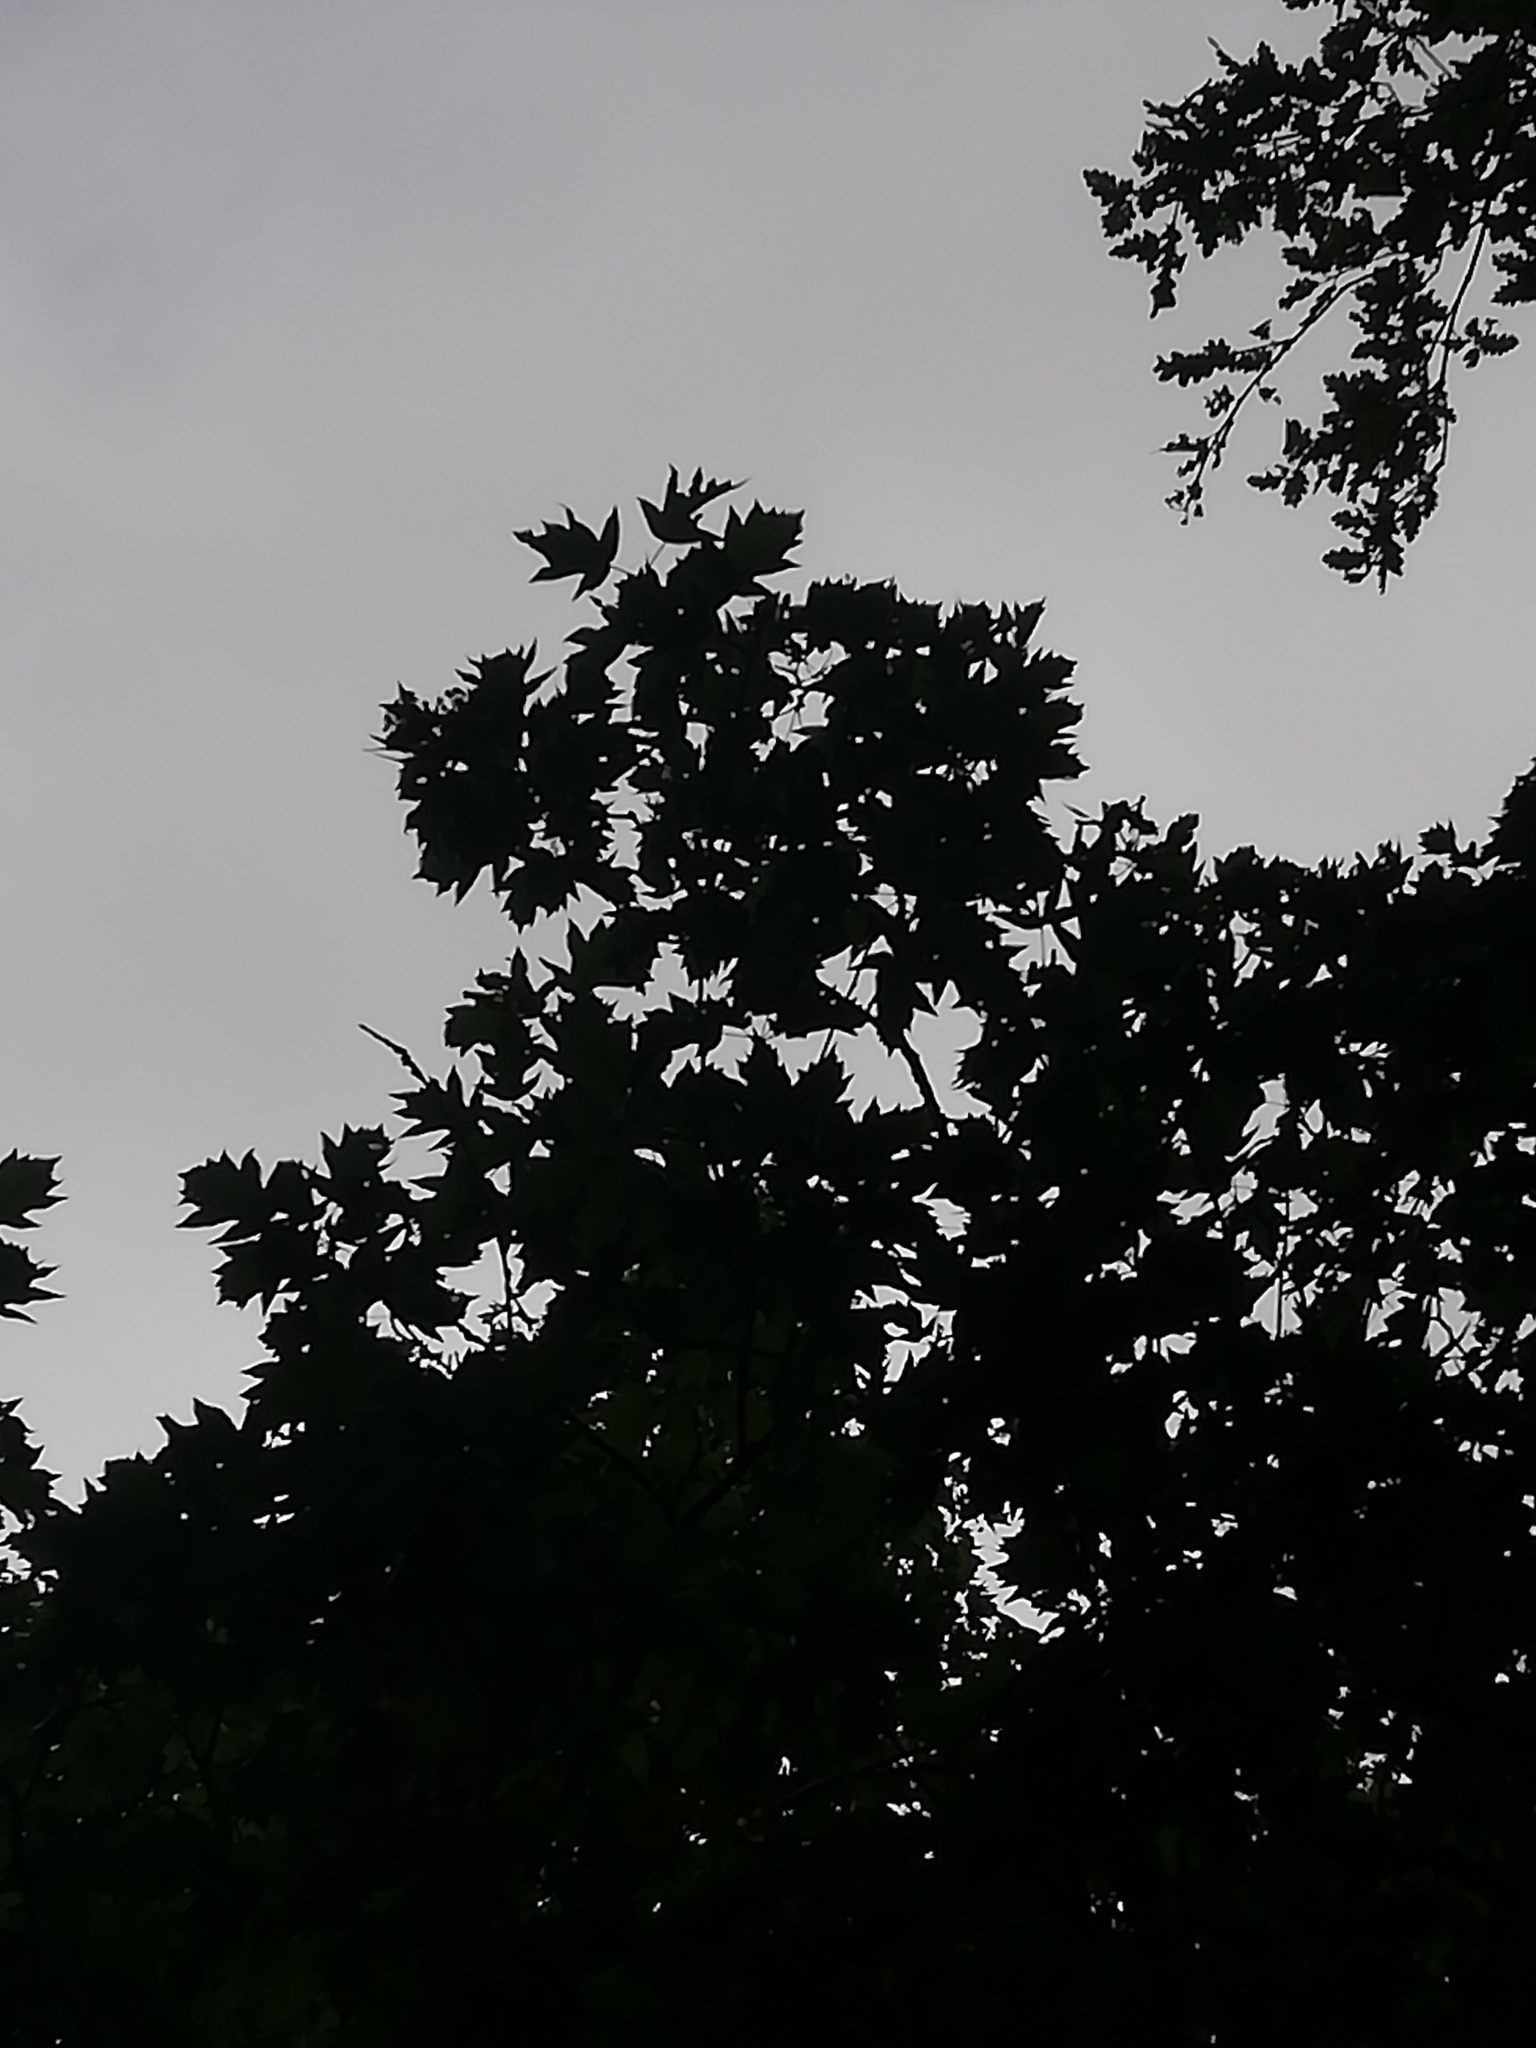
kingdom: Plantae
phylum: Tracheophyta
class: Magnoliopsida
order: Rosales
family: Rosaceae
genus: Torminalis
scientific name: Torminalis glaberrima
